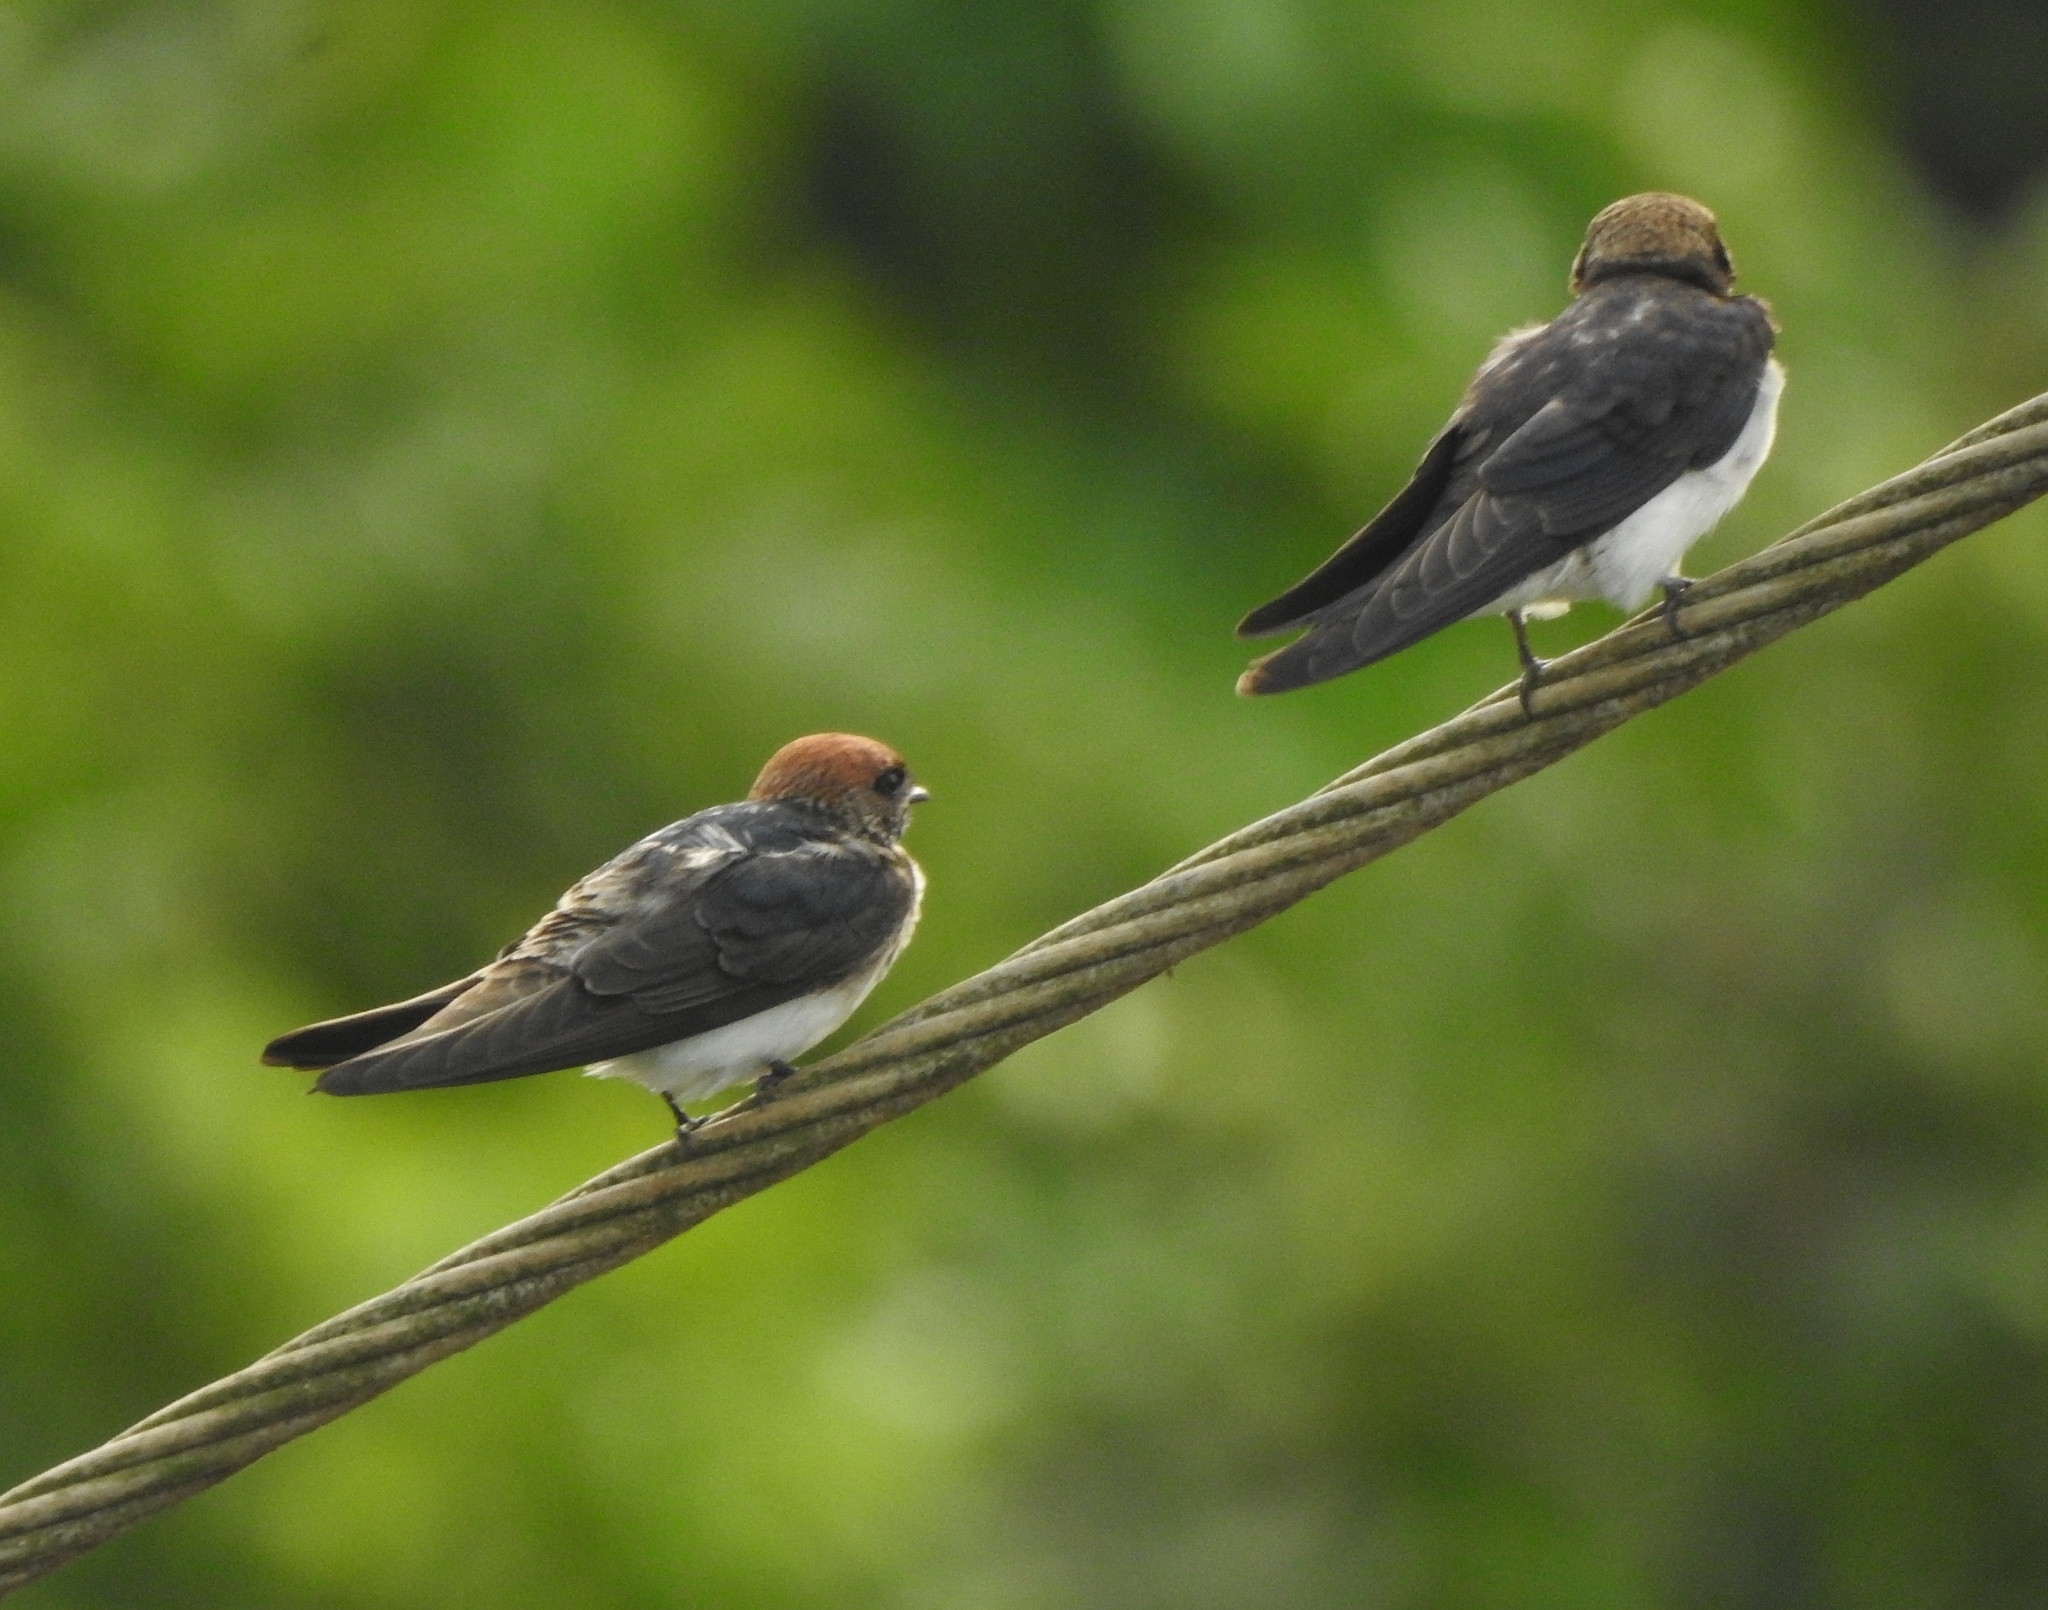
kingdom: Animalia
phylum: Chordata
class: Aves
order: Passeriformes
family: Hirundinidae
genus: Petrochelidon
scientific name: Petrochelidon fluvicola
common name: Streak-throated swallow
